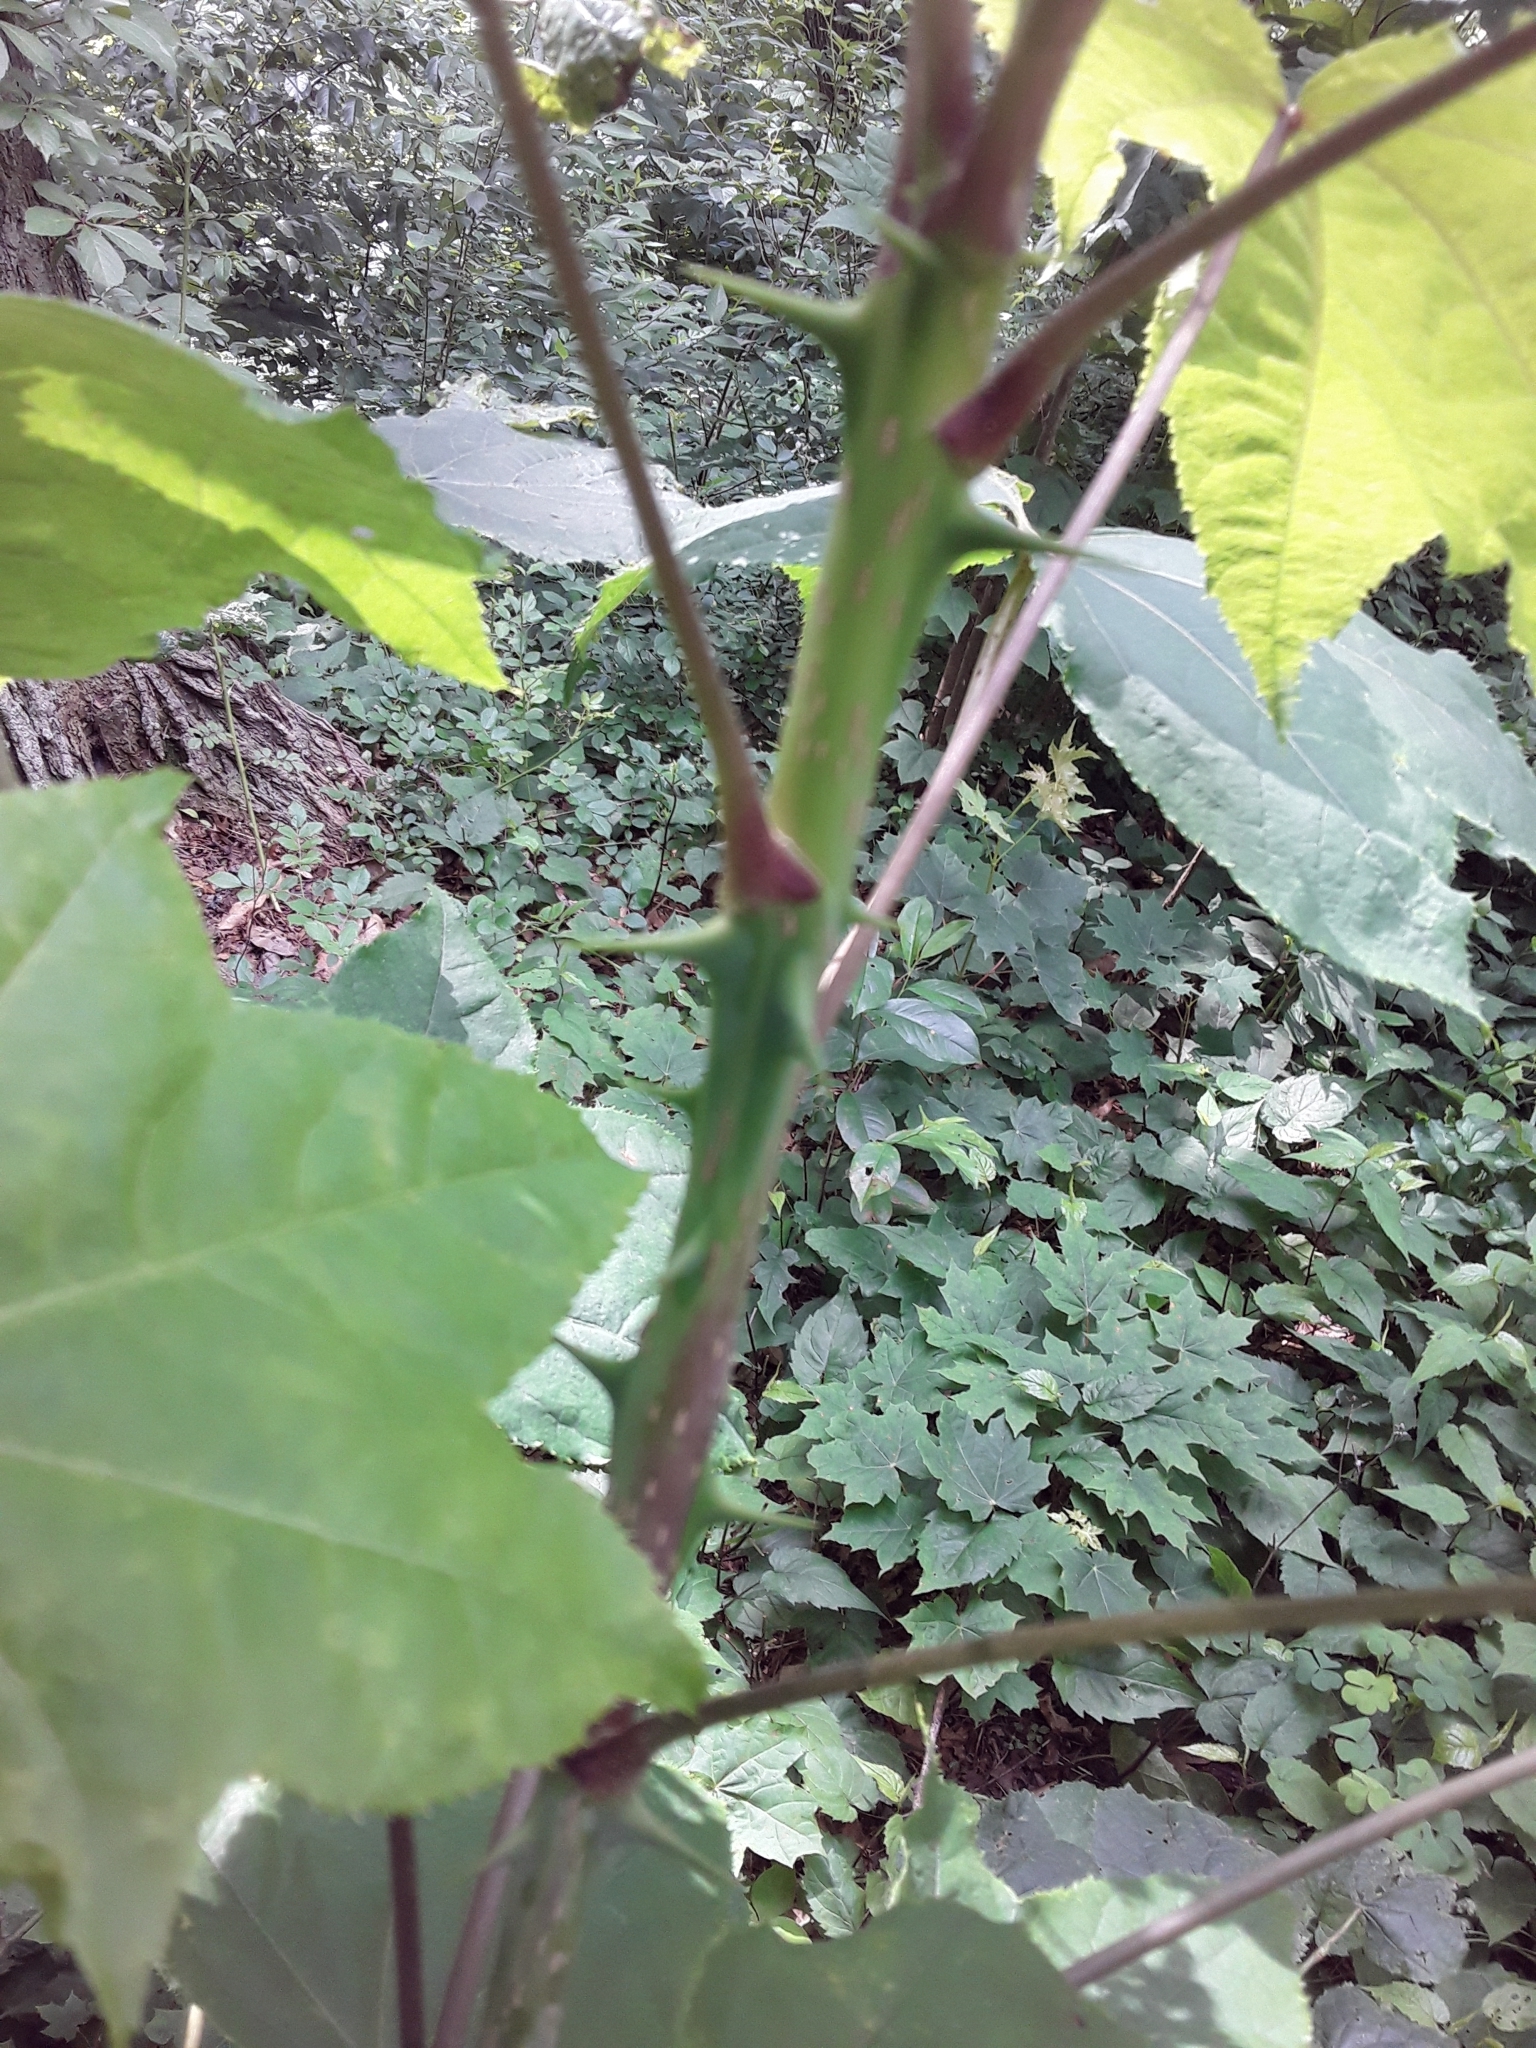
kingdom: Plantae
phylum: Tracheophyta
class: Magnoliopsida
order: Apiales
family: Araliaceae
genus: Kalopanax
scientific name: Kalopanax septemlobus
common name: Castor aralia
